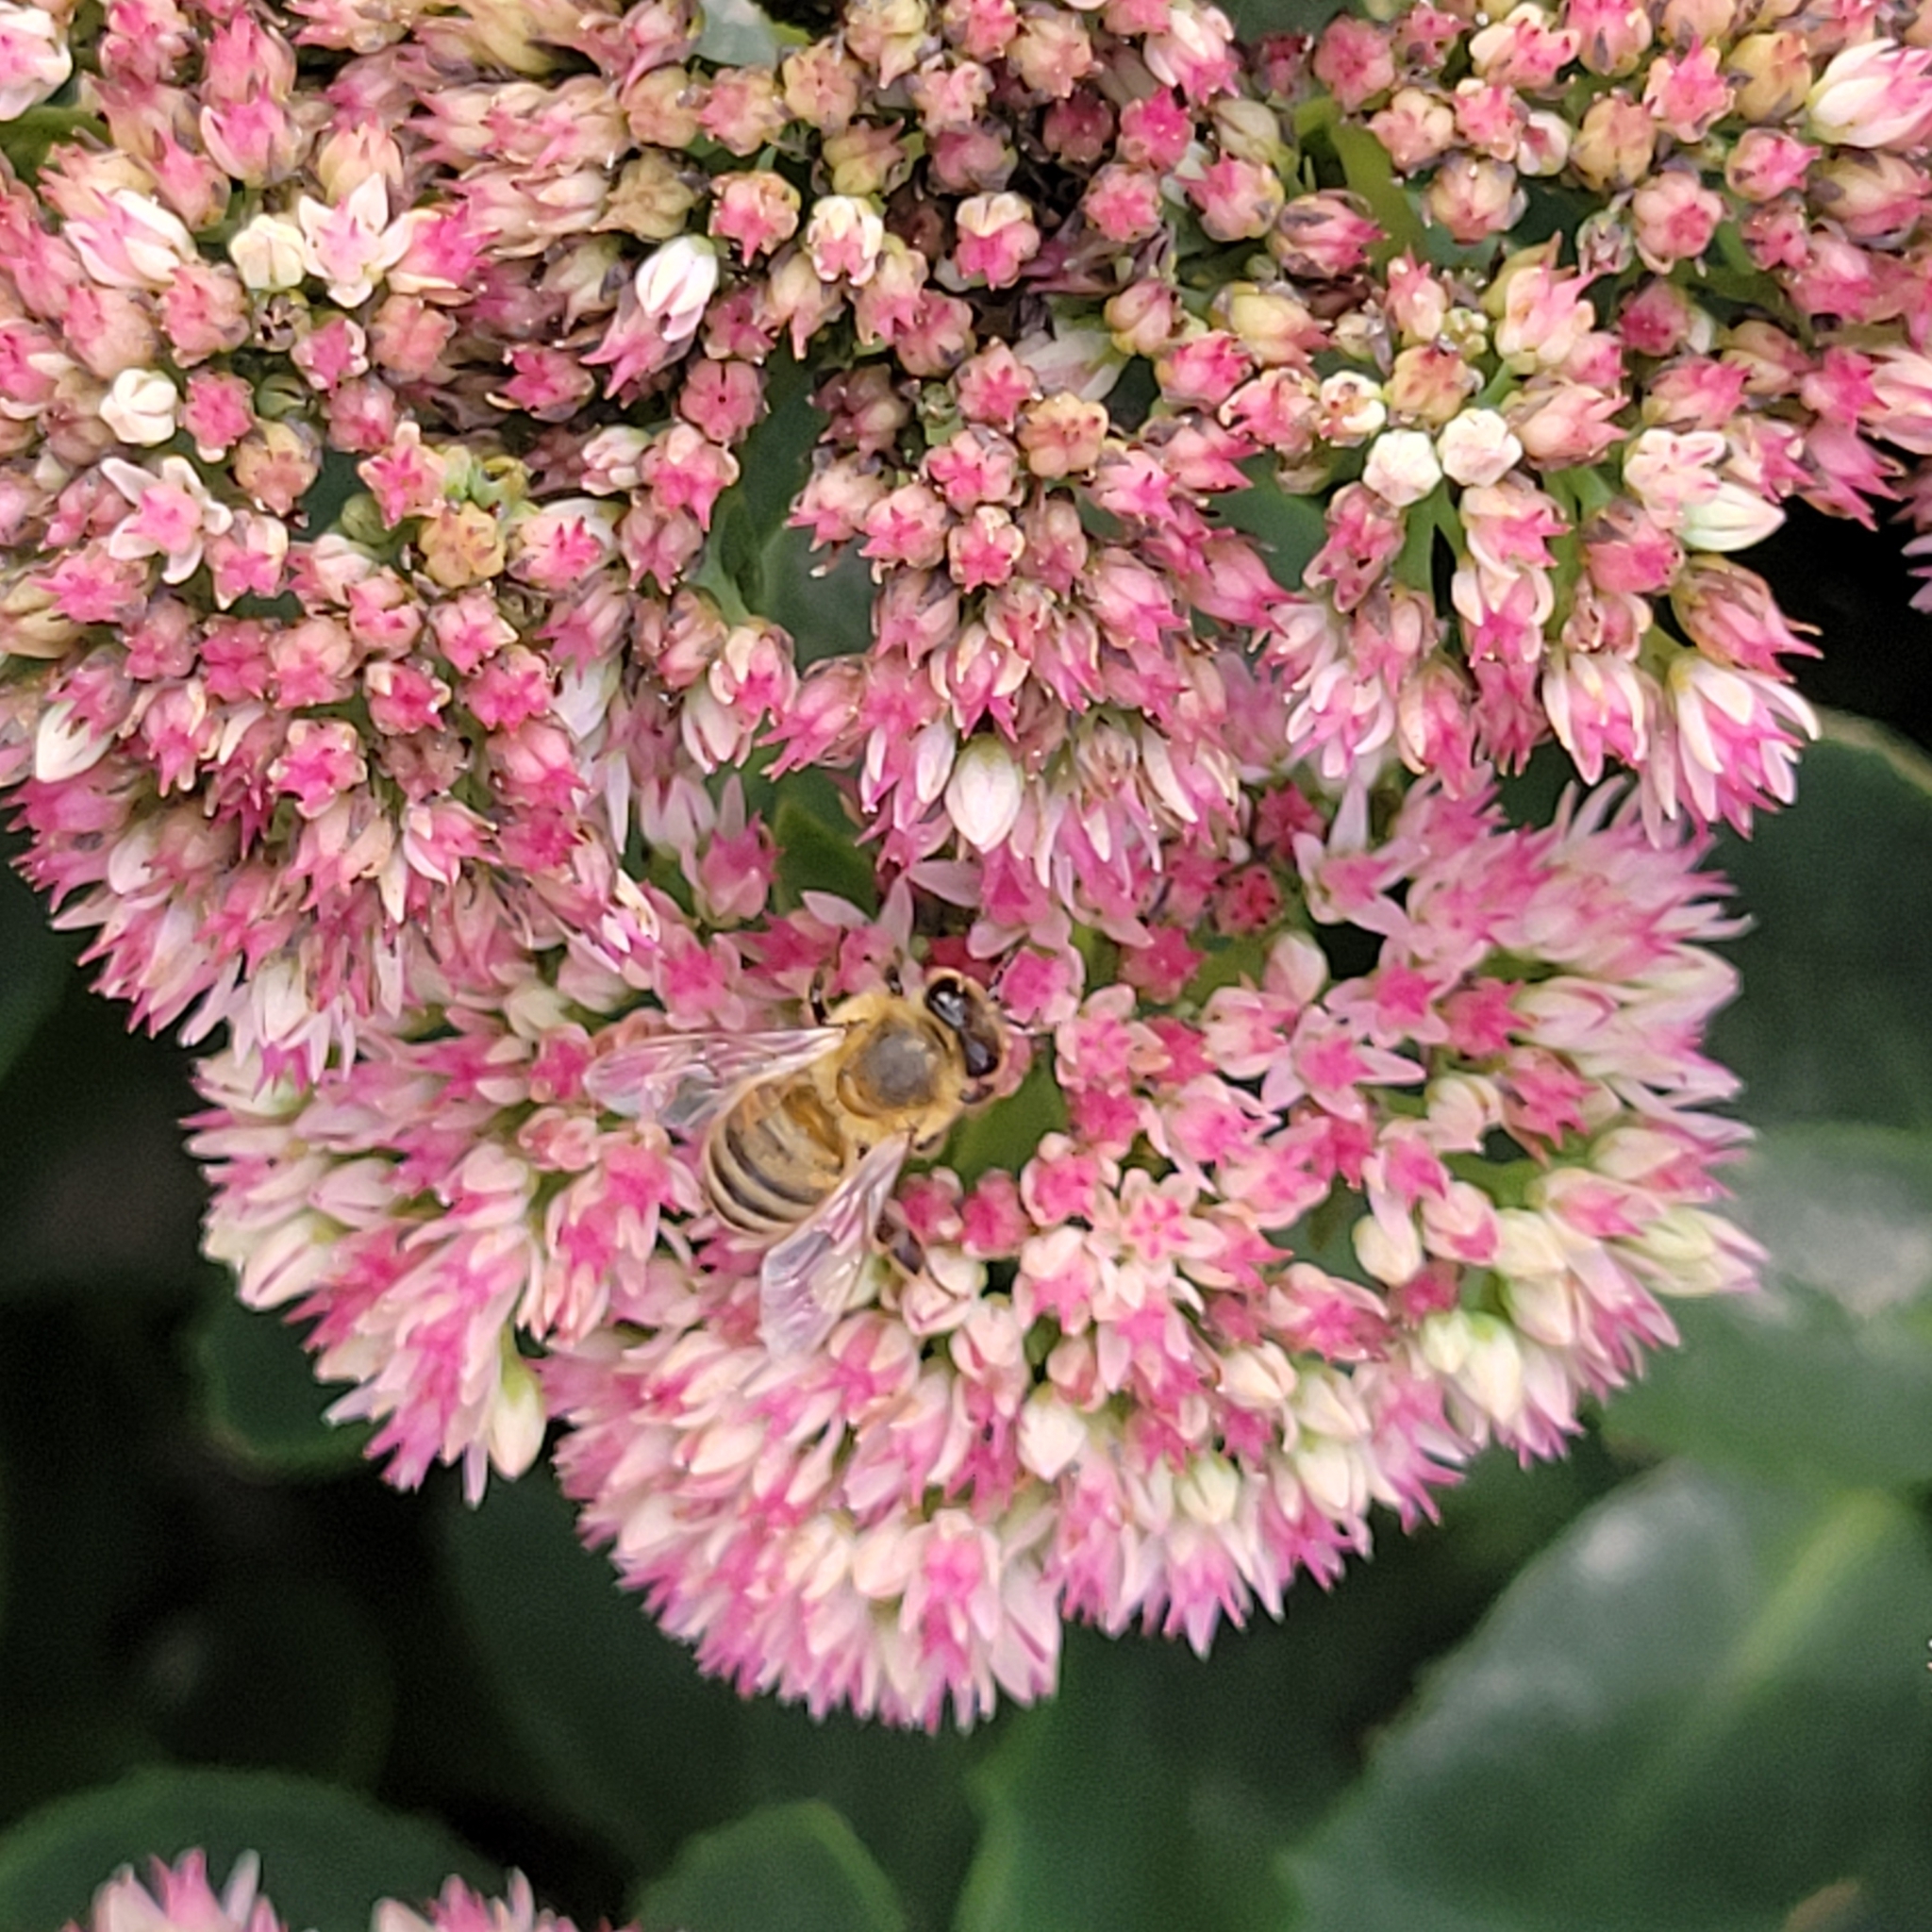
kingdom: Animalia
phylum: Arthropoda
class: Insecta
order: Hymenoptera
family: Apidae
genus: Apis
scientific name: Apis mellifera
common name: Honey bee
